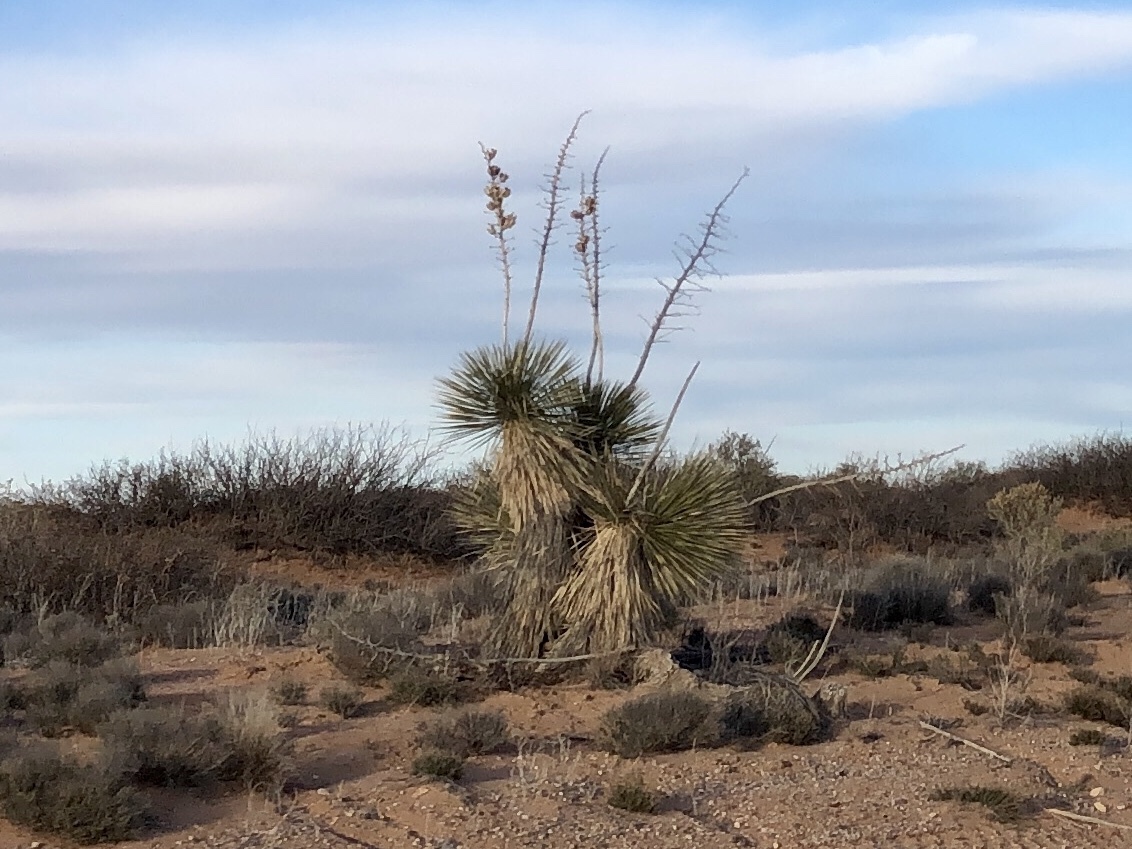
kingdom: Plantae
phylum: Tracheophyta
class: Liliopsida
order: Asparagales
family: Asparagaceae
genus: Yucca
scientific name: Yucca elata
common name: Palmella
